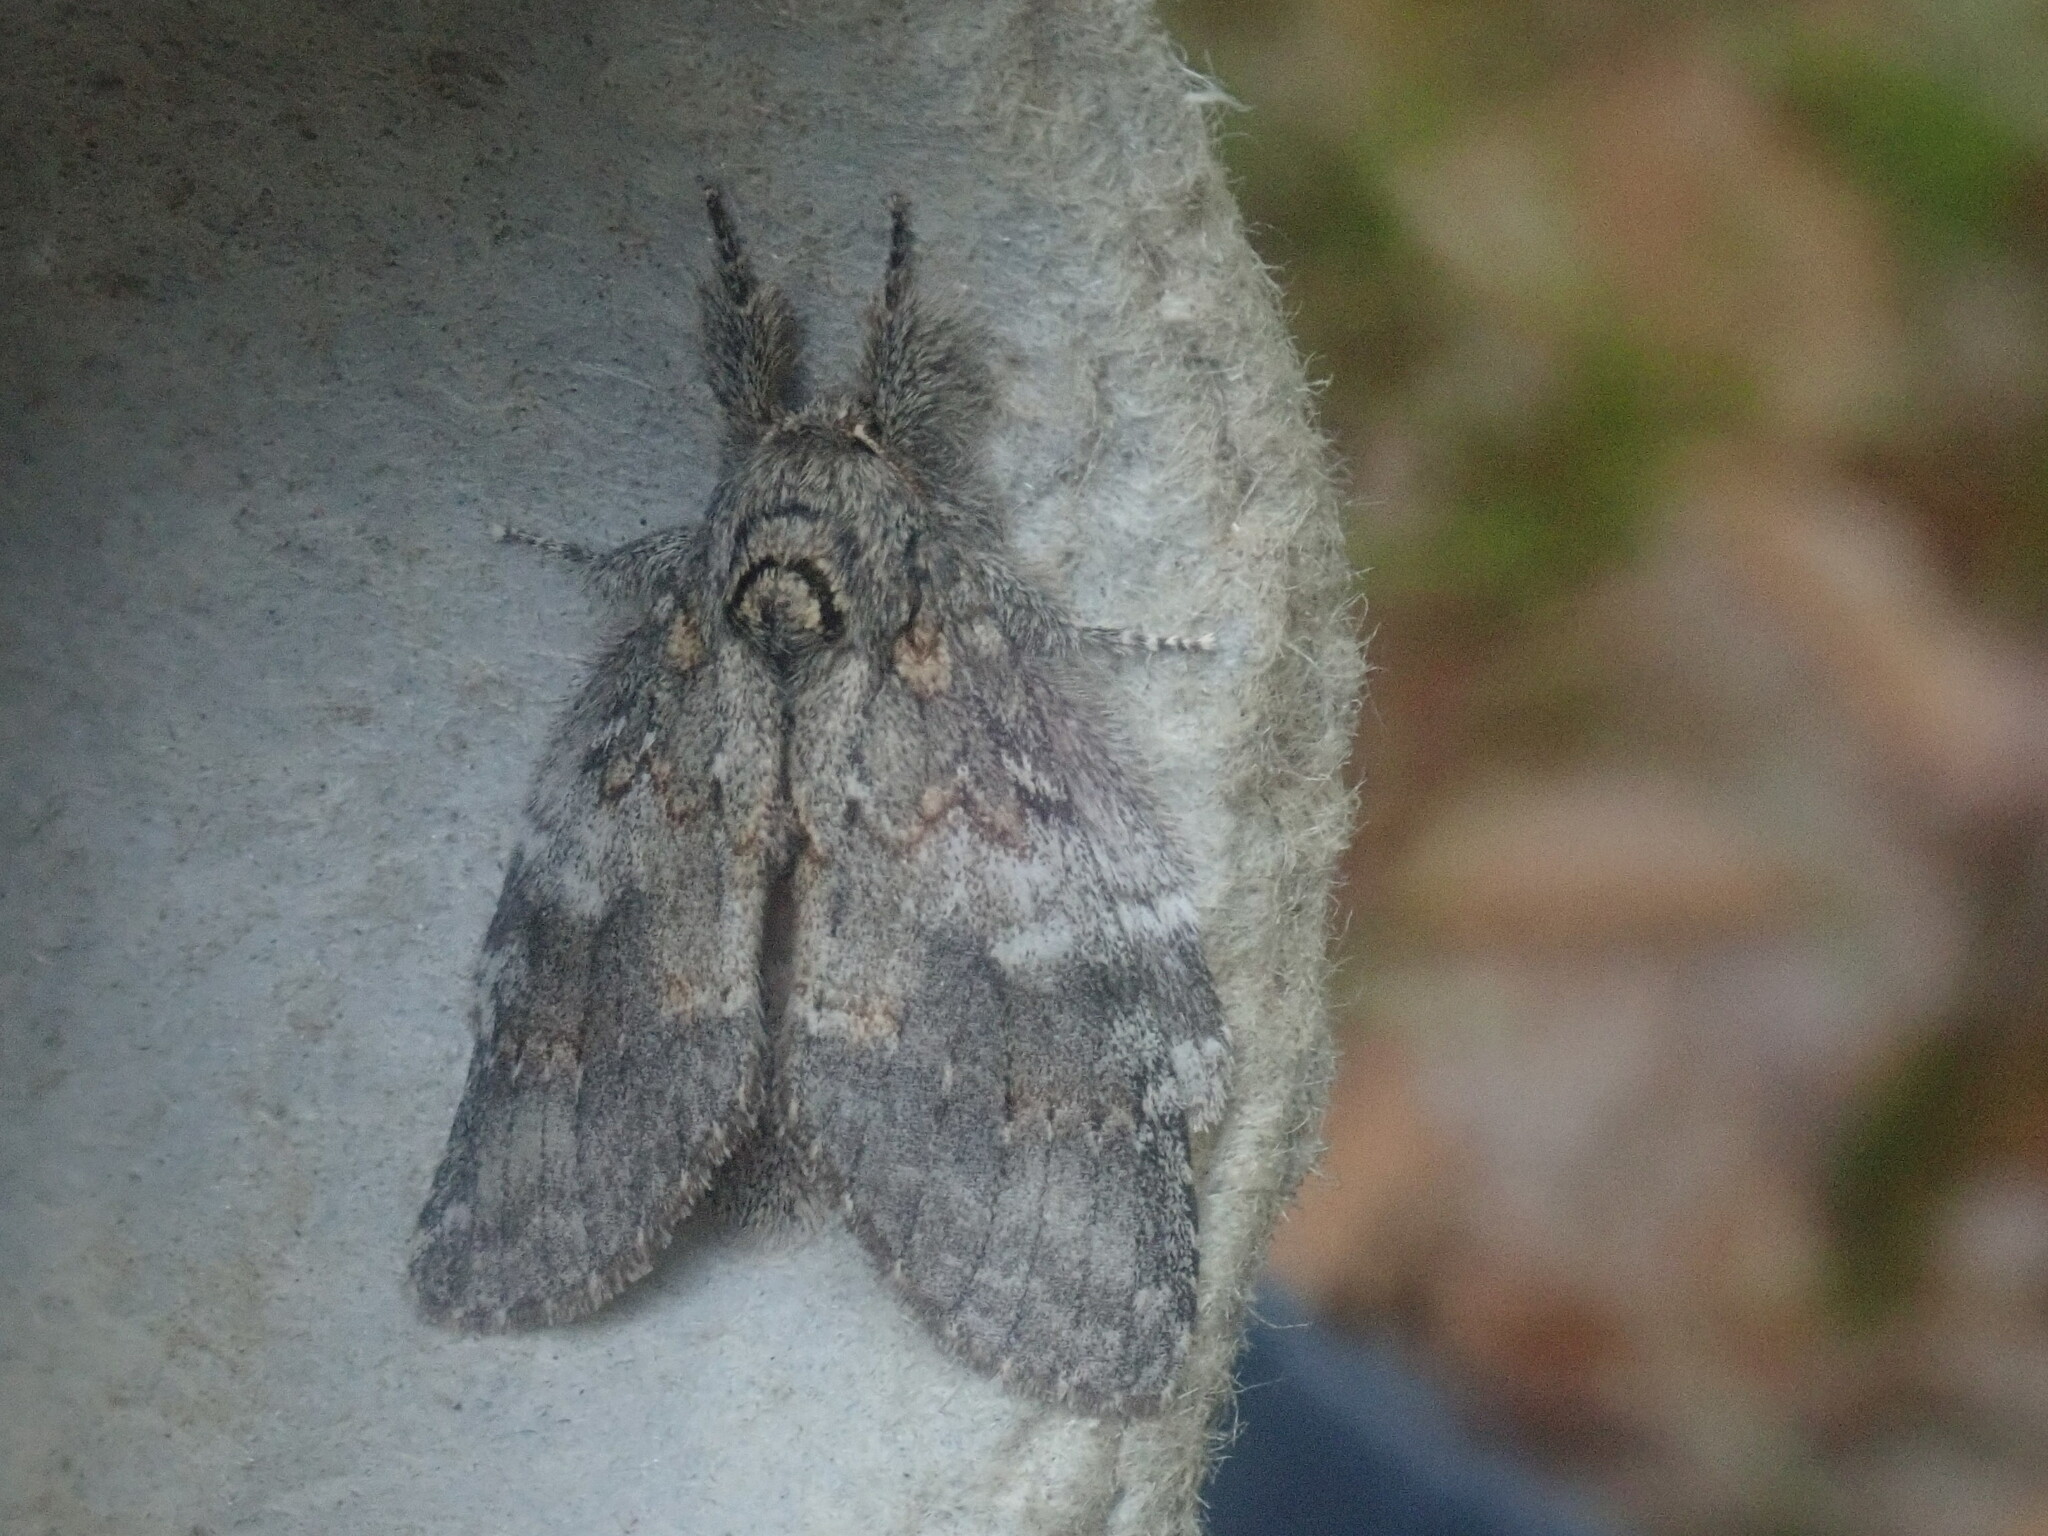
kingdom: Animalia
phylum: Arthropoda
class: Insecta
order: Lepidoptera
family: Notodontidae
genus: Peridea
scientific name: Peridea angulosa
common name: Angulose prominent
